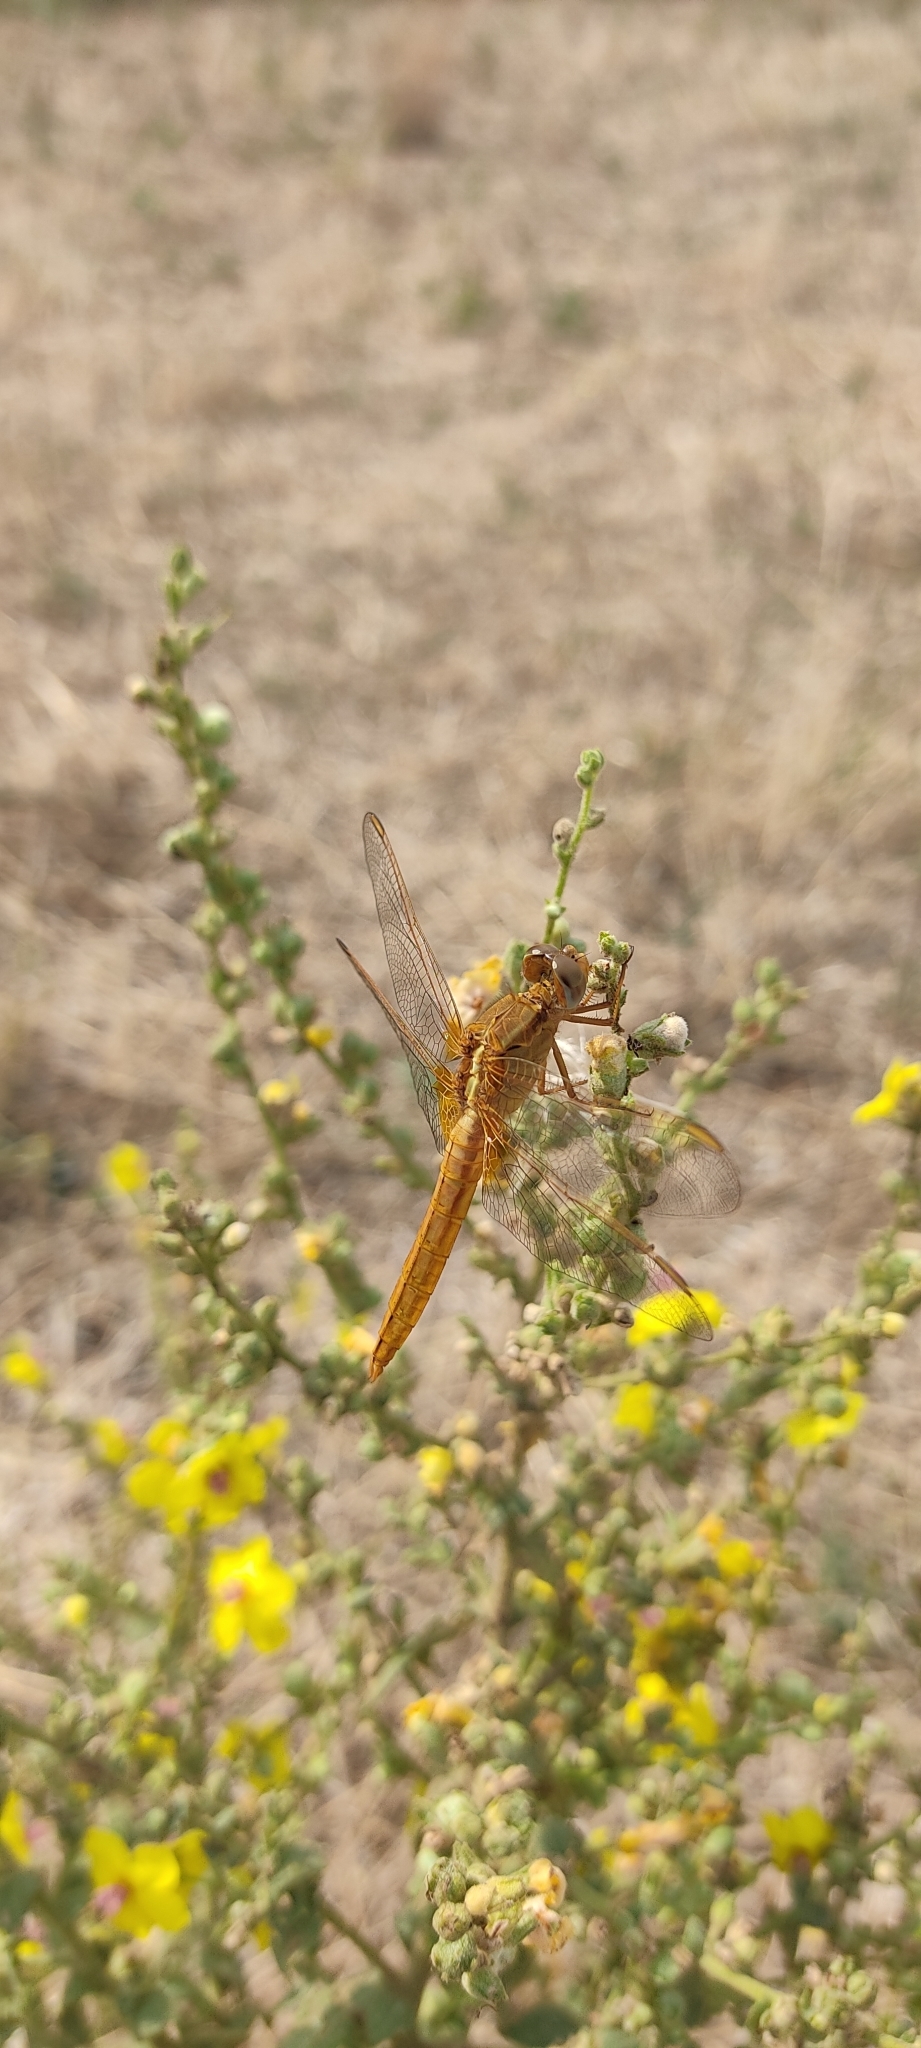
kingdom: Animalia
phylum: Arthropoda
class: Insecta
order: Odonata
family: Libellulidae
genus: Crocothemis
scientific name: Crocothemis erythraea
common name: Scarlet dragonfly
